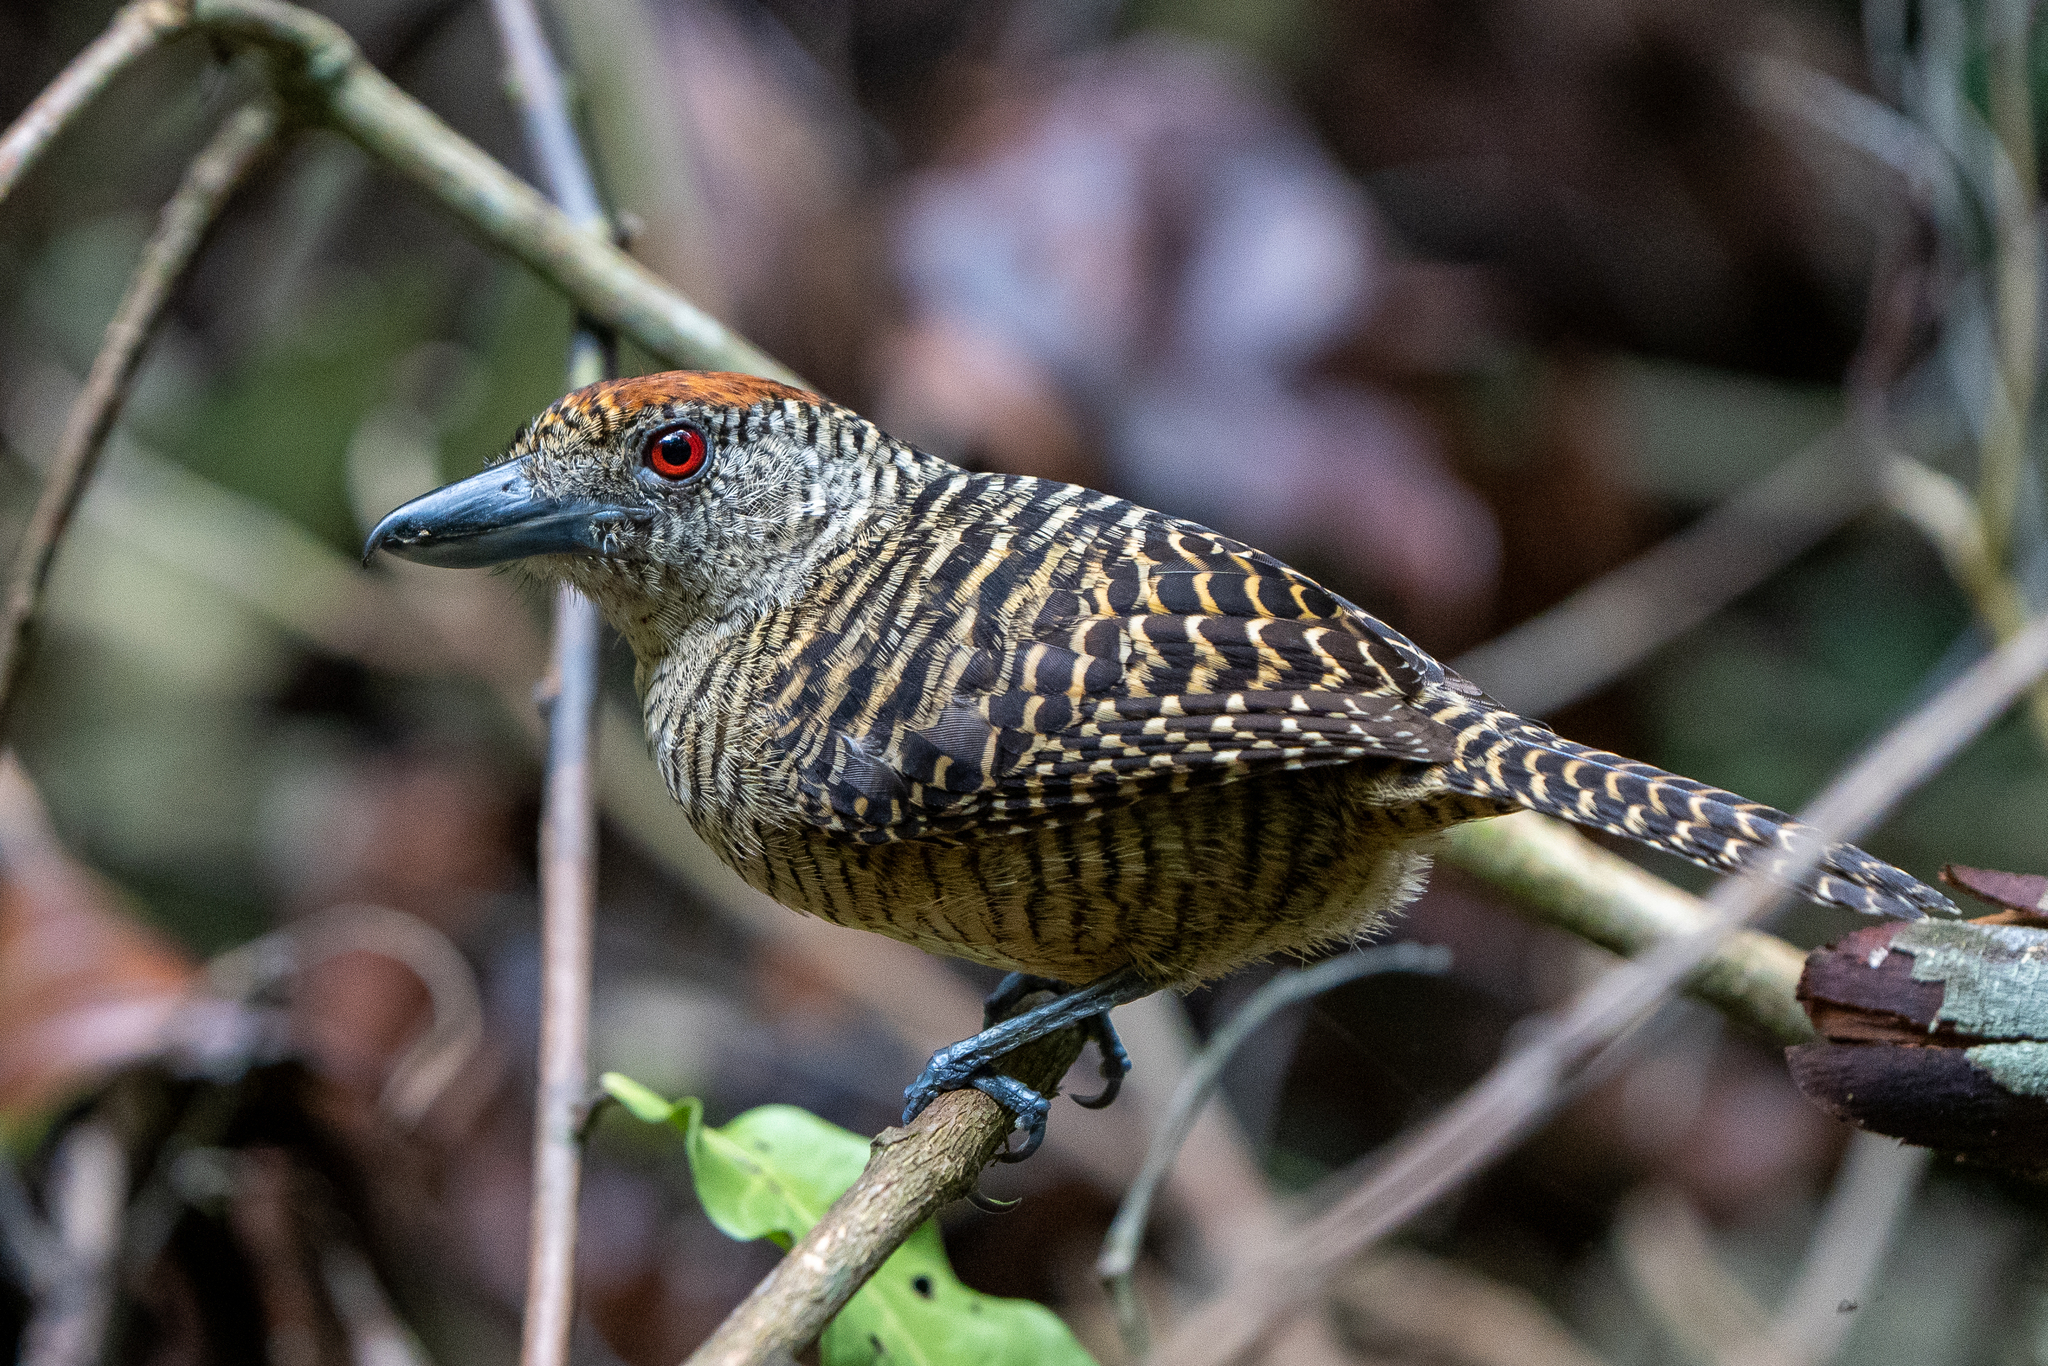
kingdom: Animalia
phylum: Chordata
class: Aves
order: Passeriformes
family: Thamnophilidae
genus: Cymbilaimus
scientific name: Cymbilaimus lineatus
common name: Fasciated antshrike
